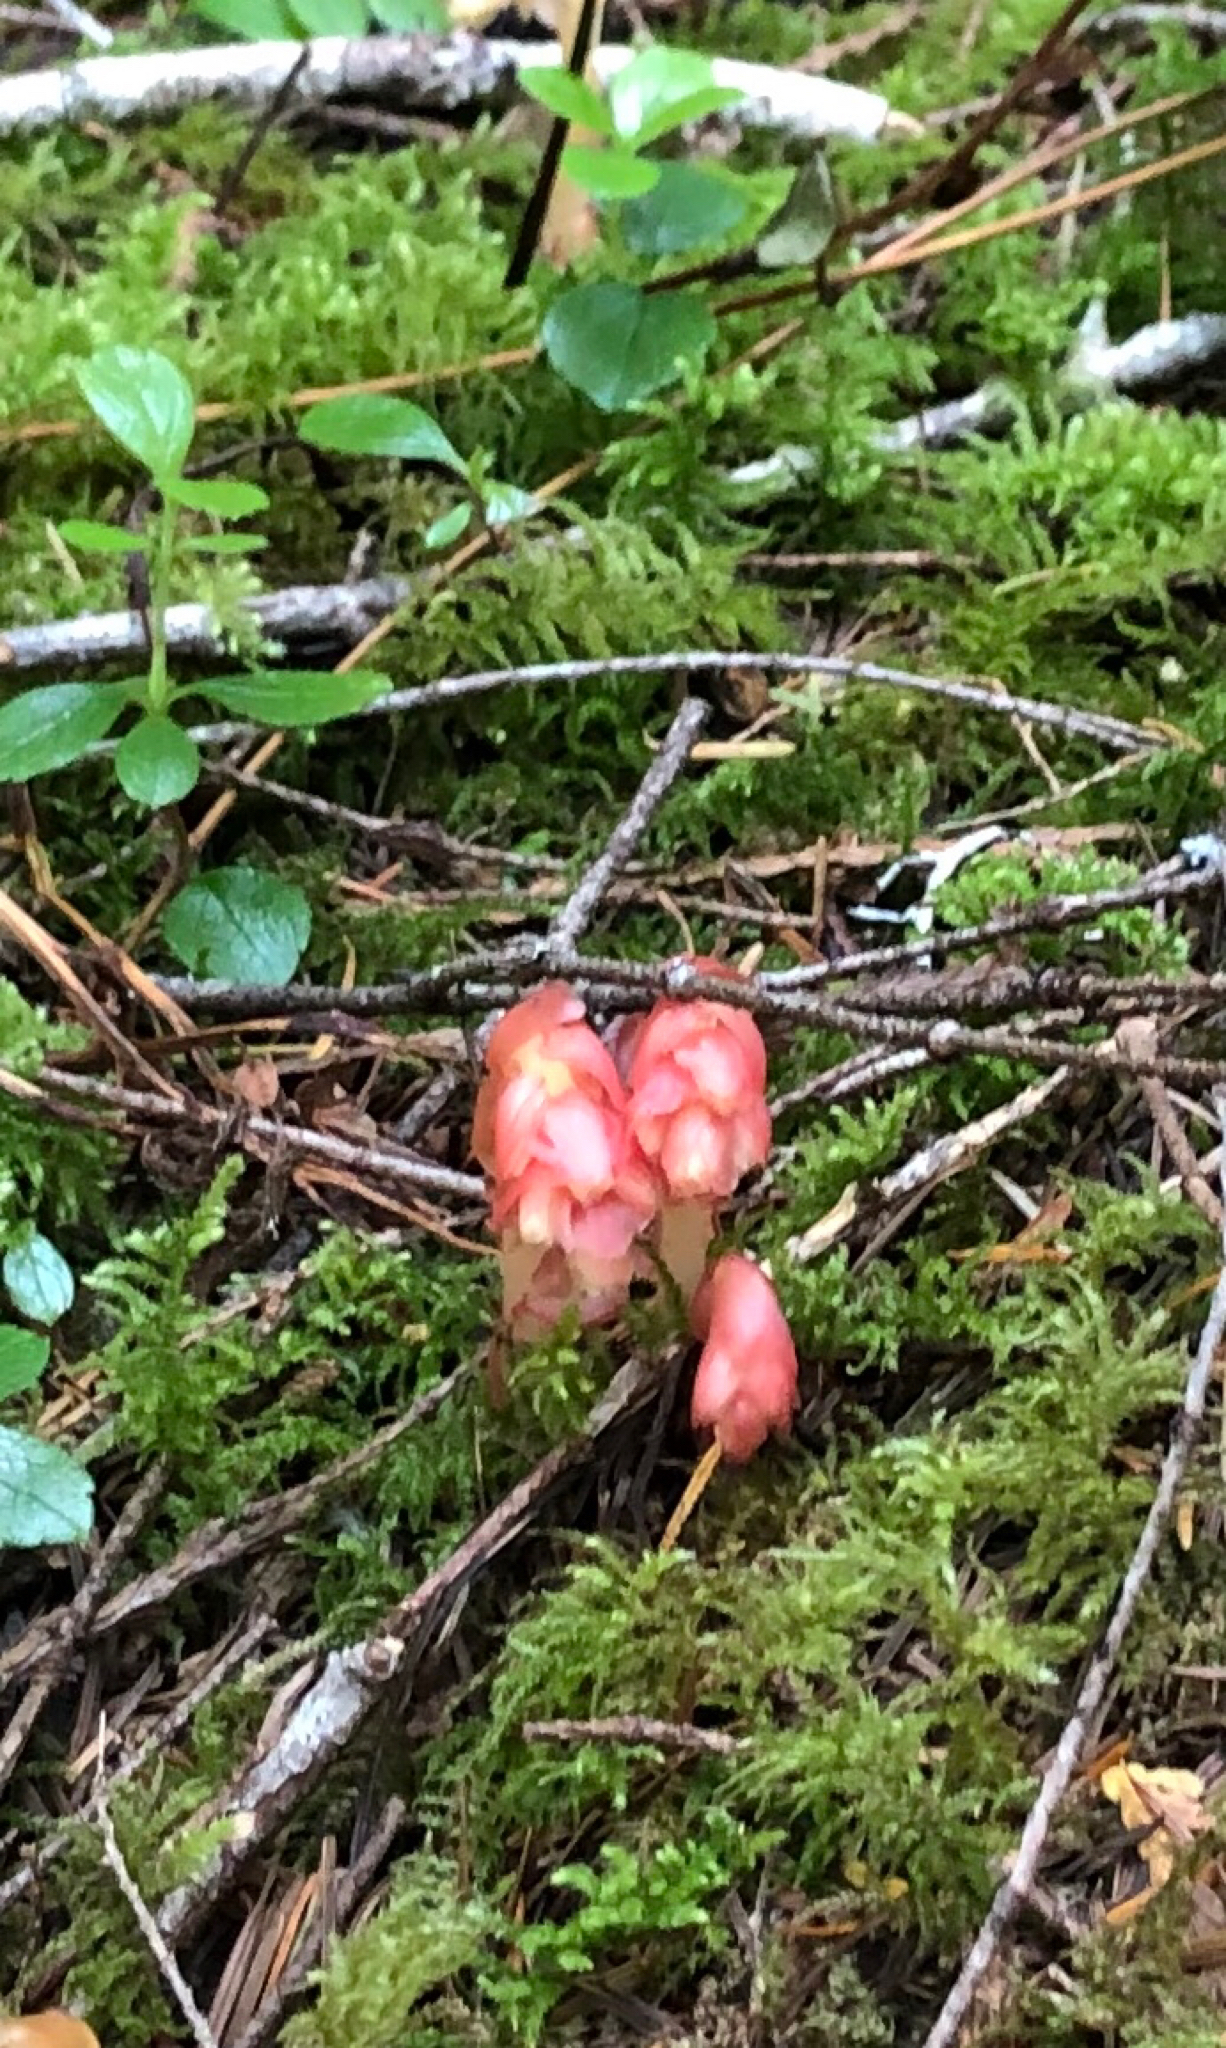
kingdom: Plantae
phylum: Tracheophyta
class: Magnoliopsida
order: Ericales
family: Ericaceae
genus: Hypopitys
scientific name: Hypopitys monotropa
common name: Yellow bird's-nest
